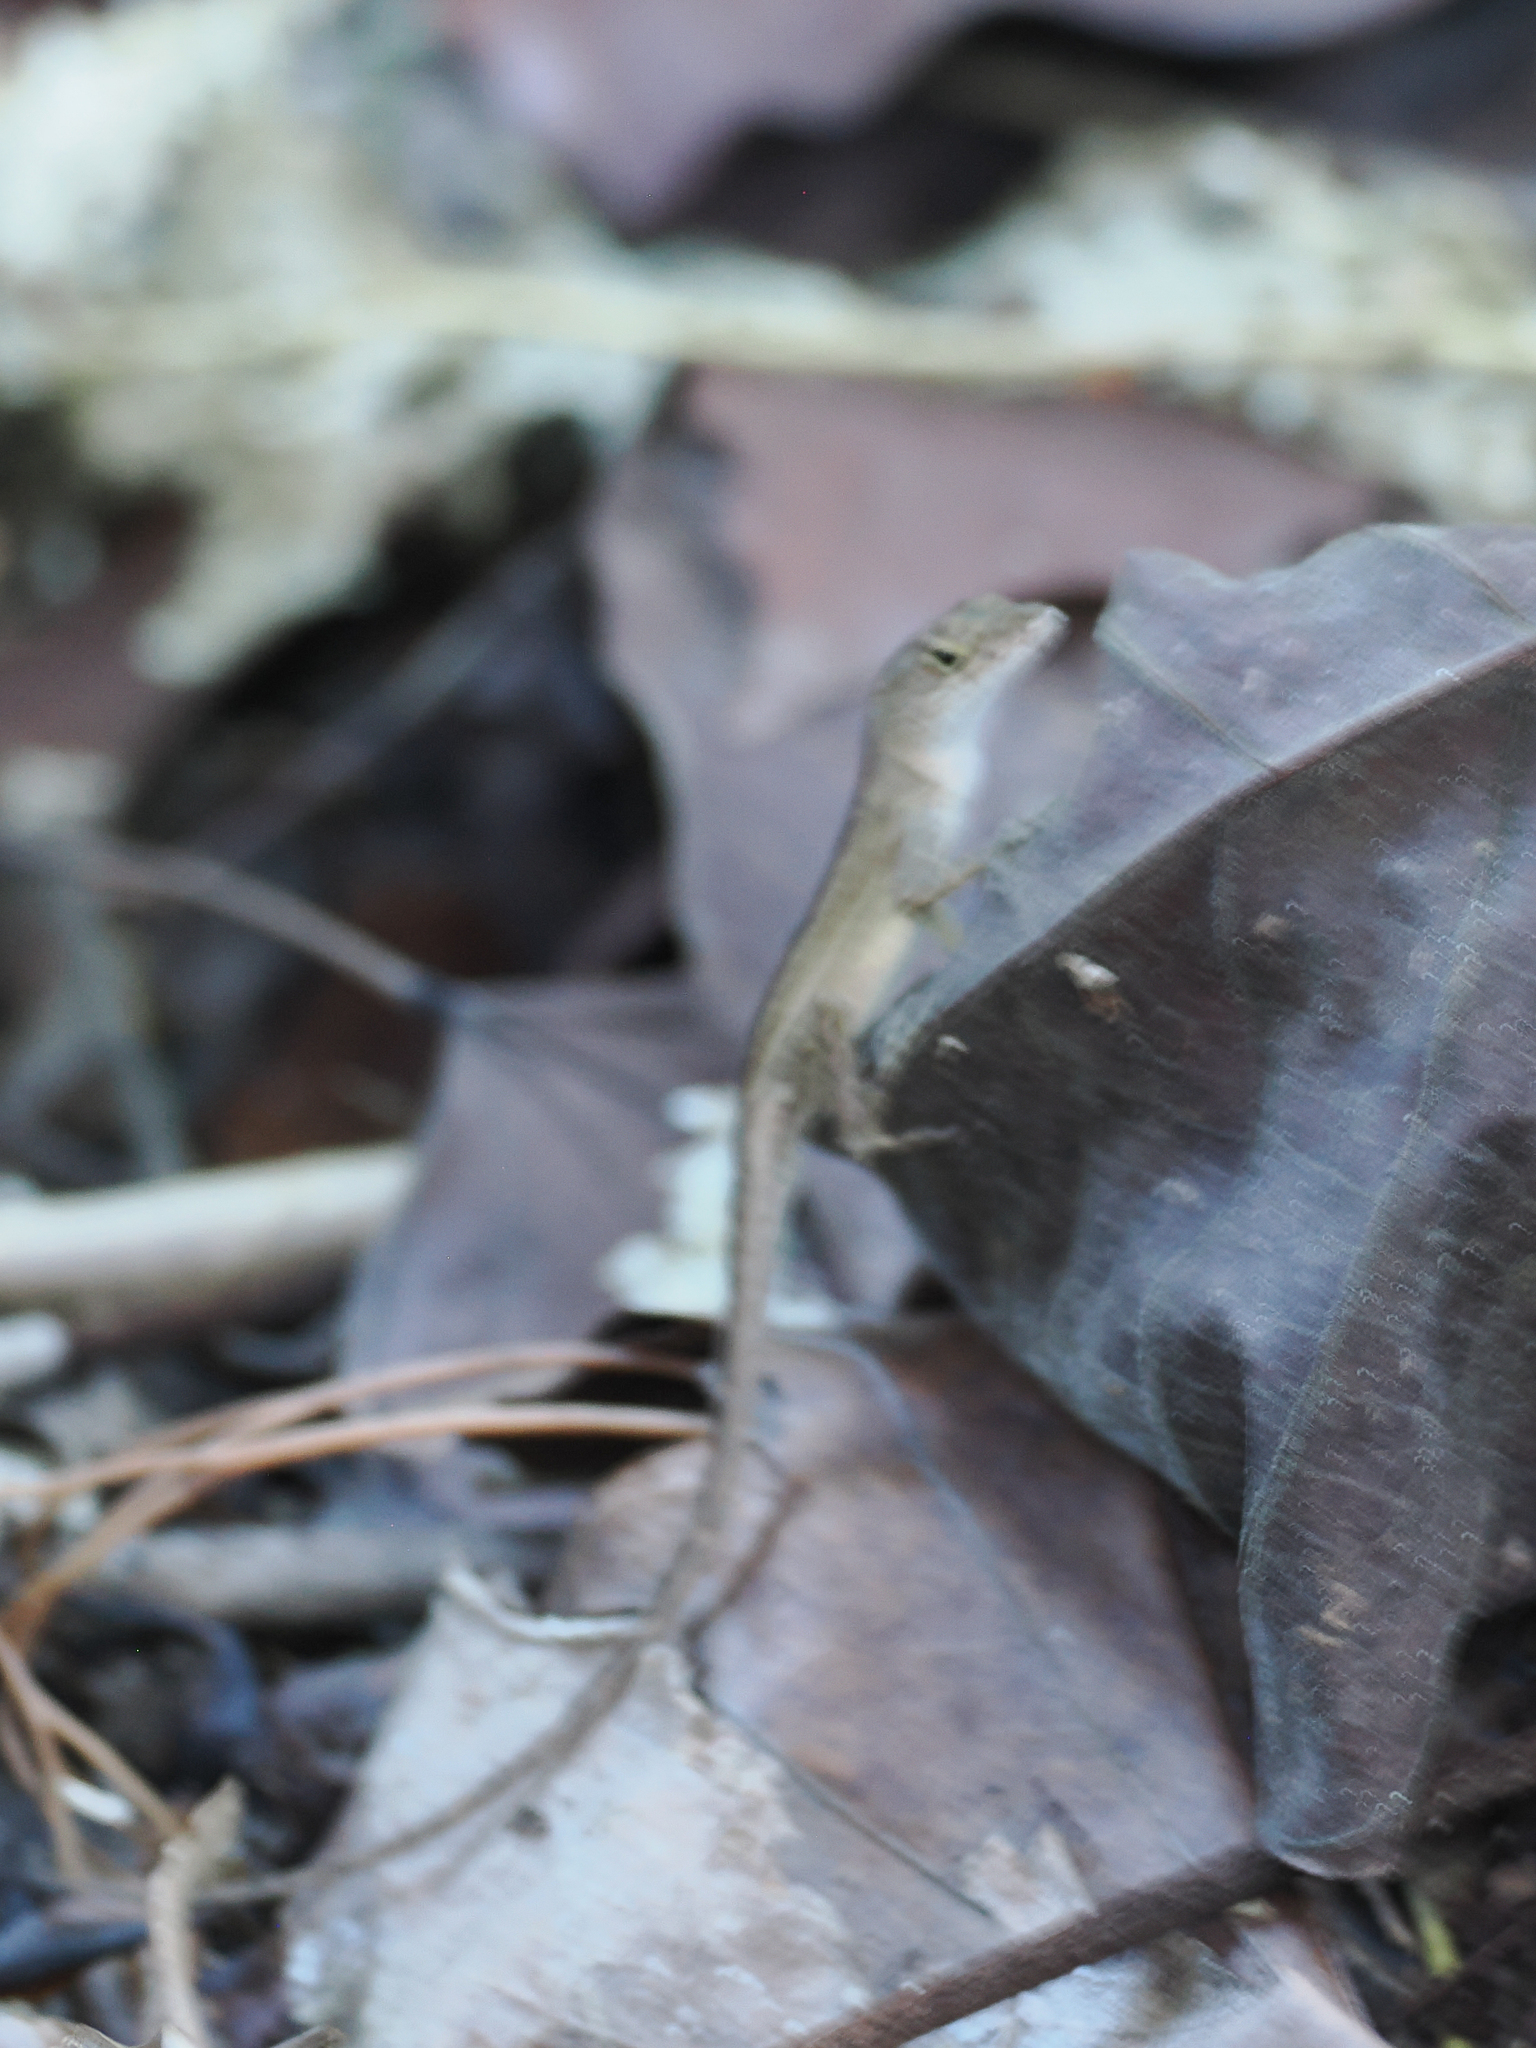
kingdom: Animalia
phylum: Chordata
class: Squamata
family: Dactyloidae
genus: Anolis
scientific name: Anolis sagrei
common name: Brown anole
